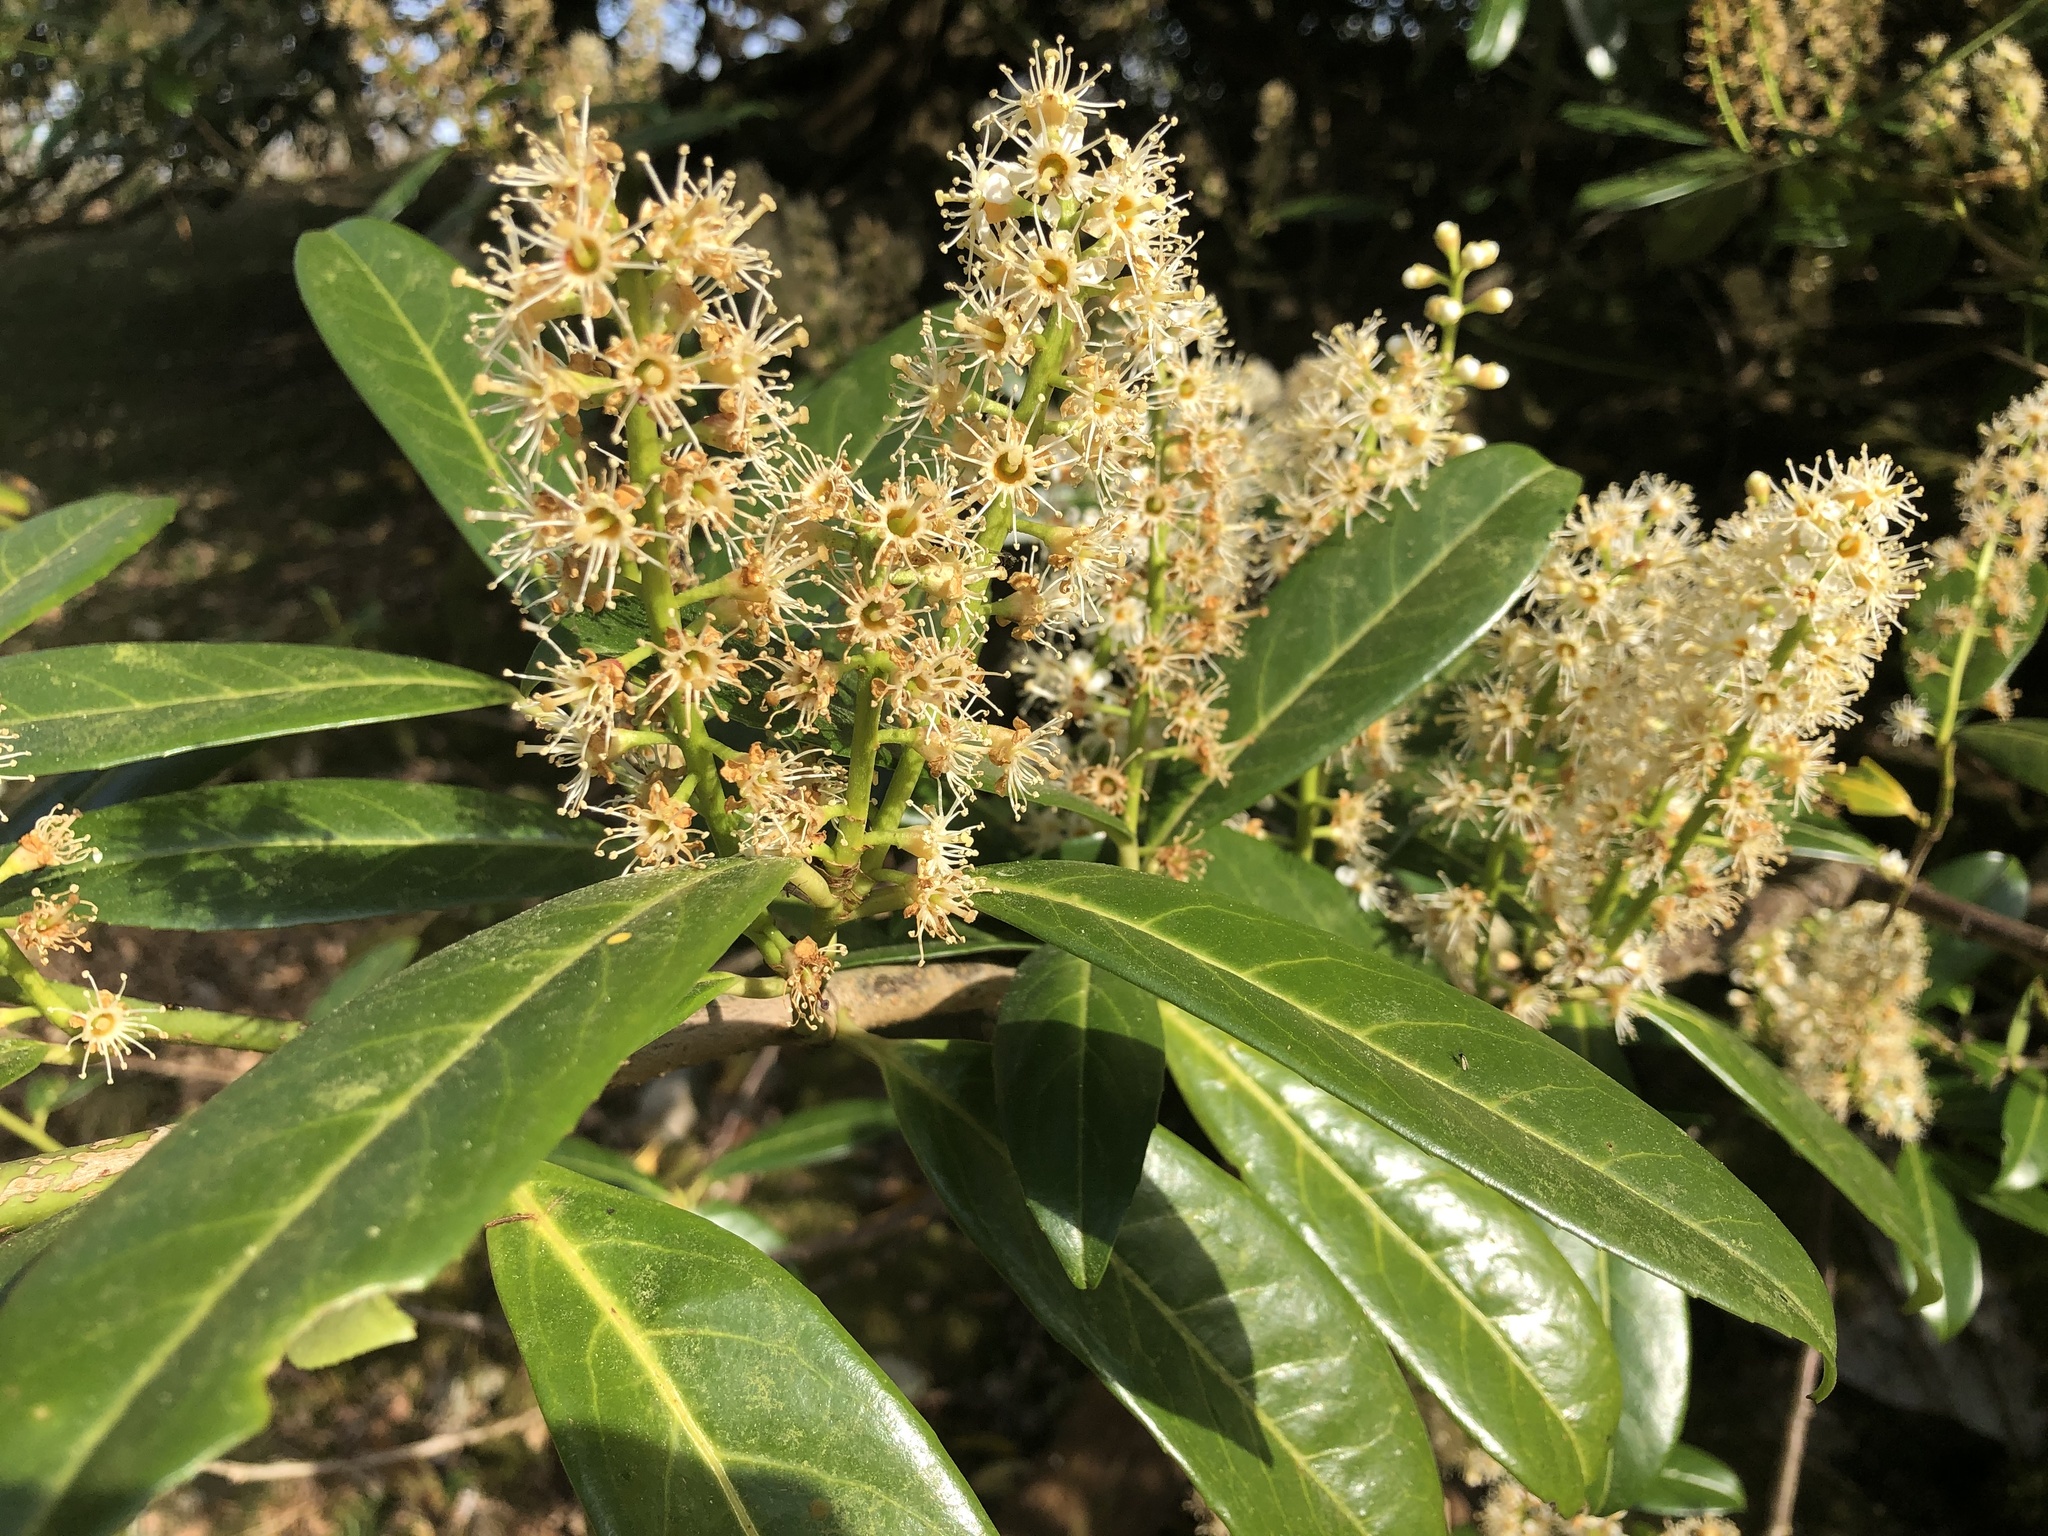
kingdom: Plantae
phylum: Tracheophyta
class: Magnoliopsida
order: Rosales
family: Rosaceae
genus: Prunus
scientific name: Prunus laurocerasus
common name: Cherry laurel
